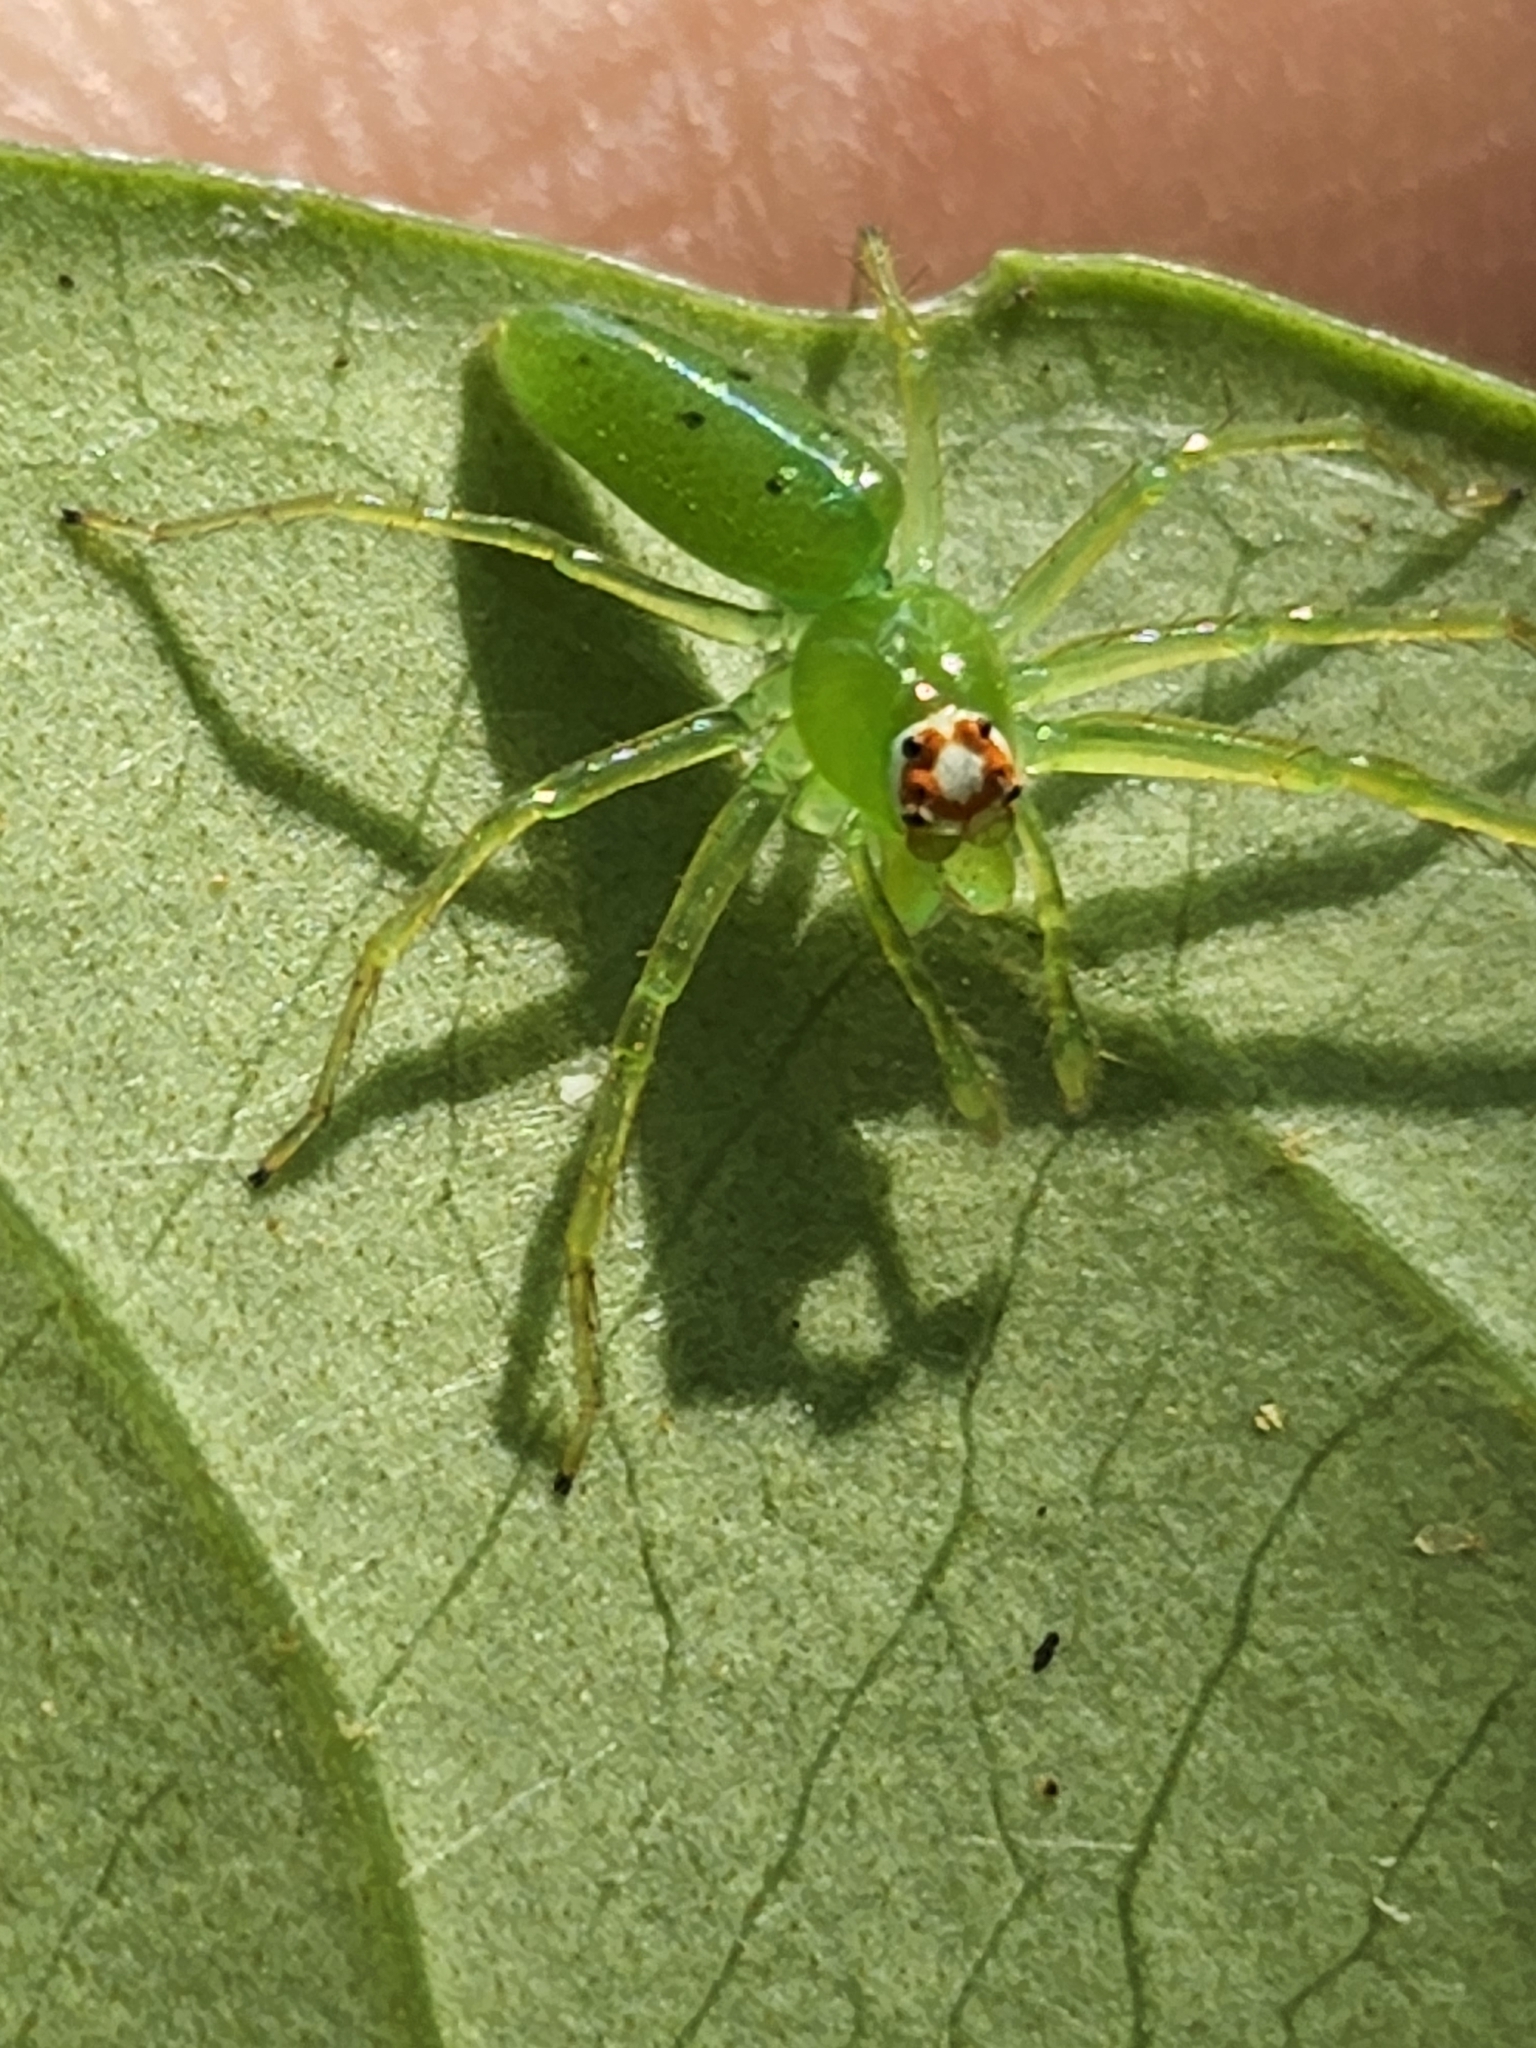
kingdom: Animalia
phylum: Arthropoda
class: Arachnida
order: Araneae
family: Salticidae
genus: Lyssomanes
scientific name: Lyssomanes viridis
